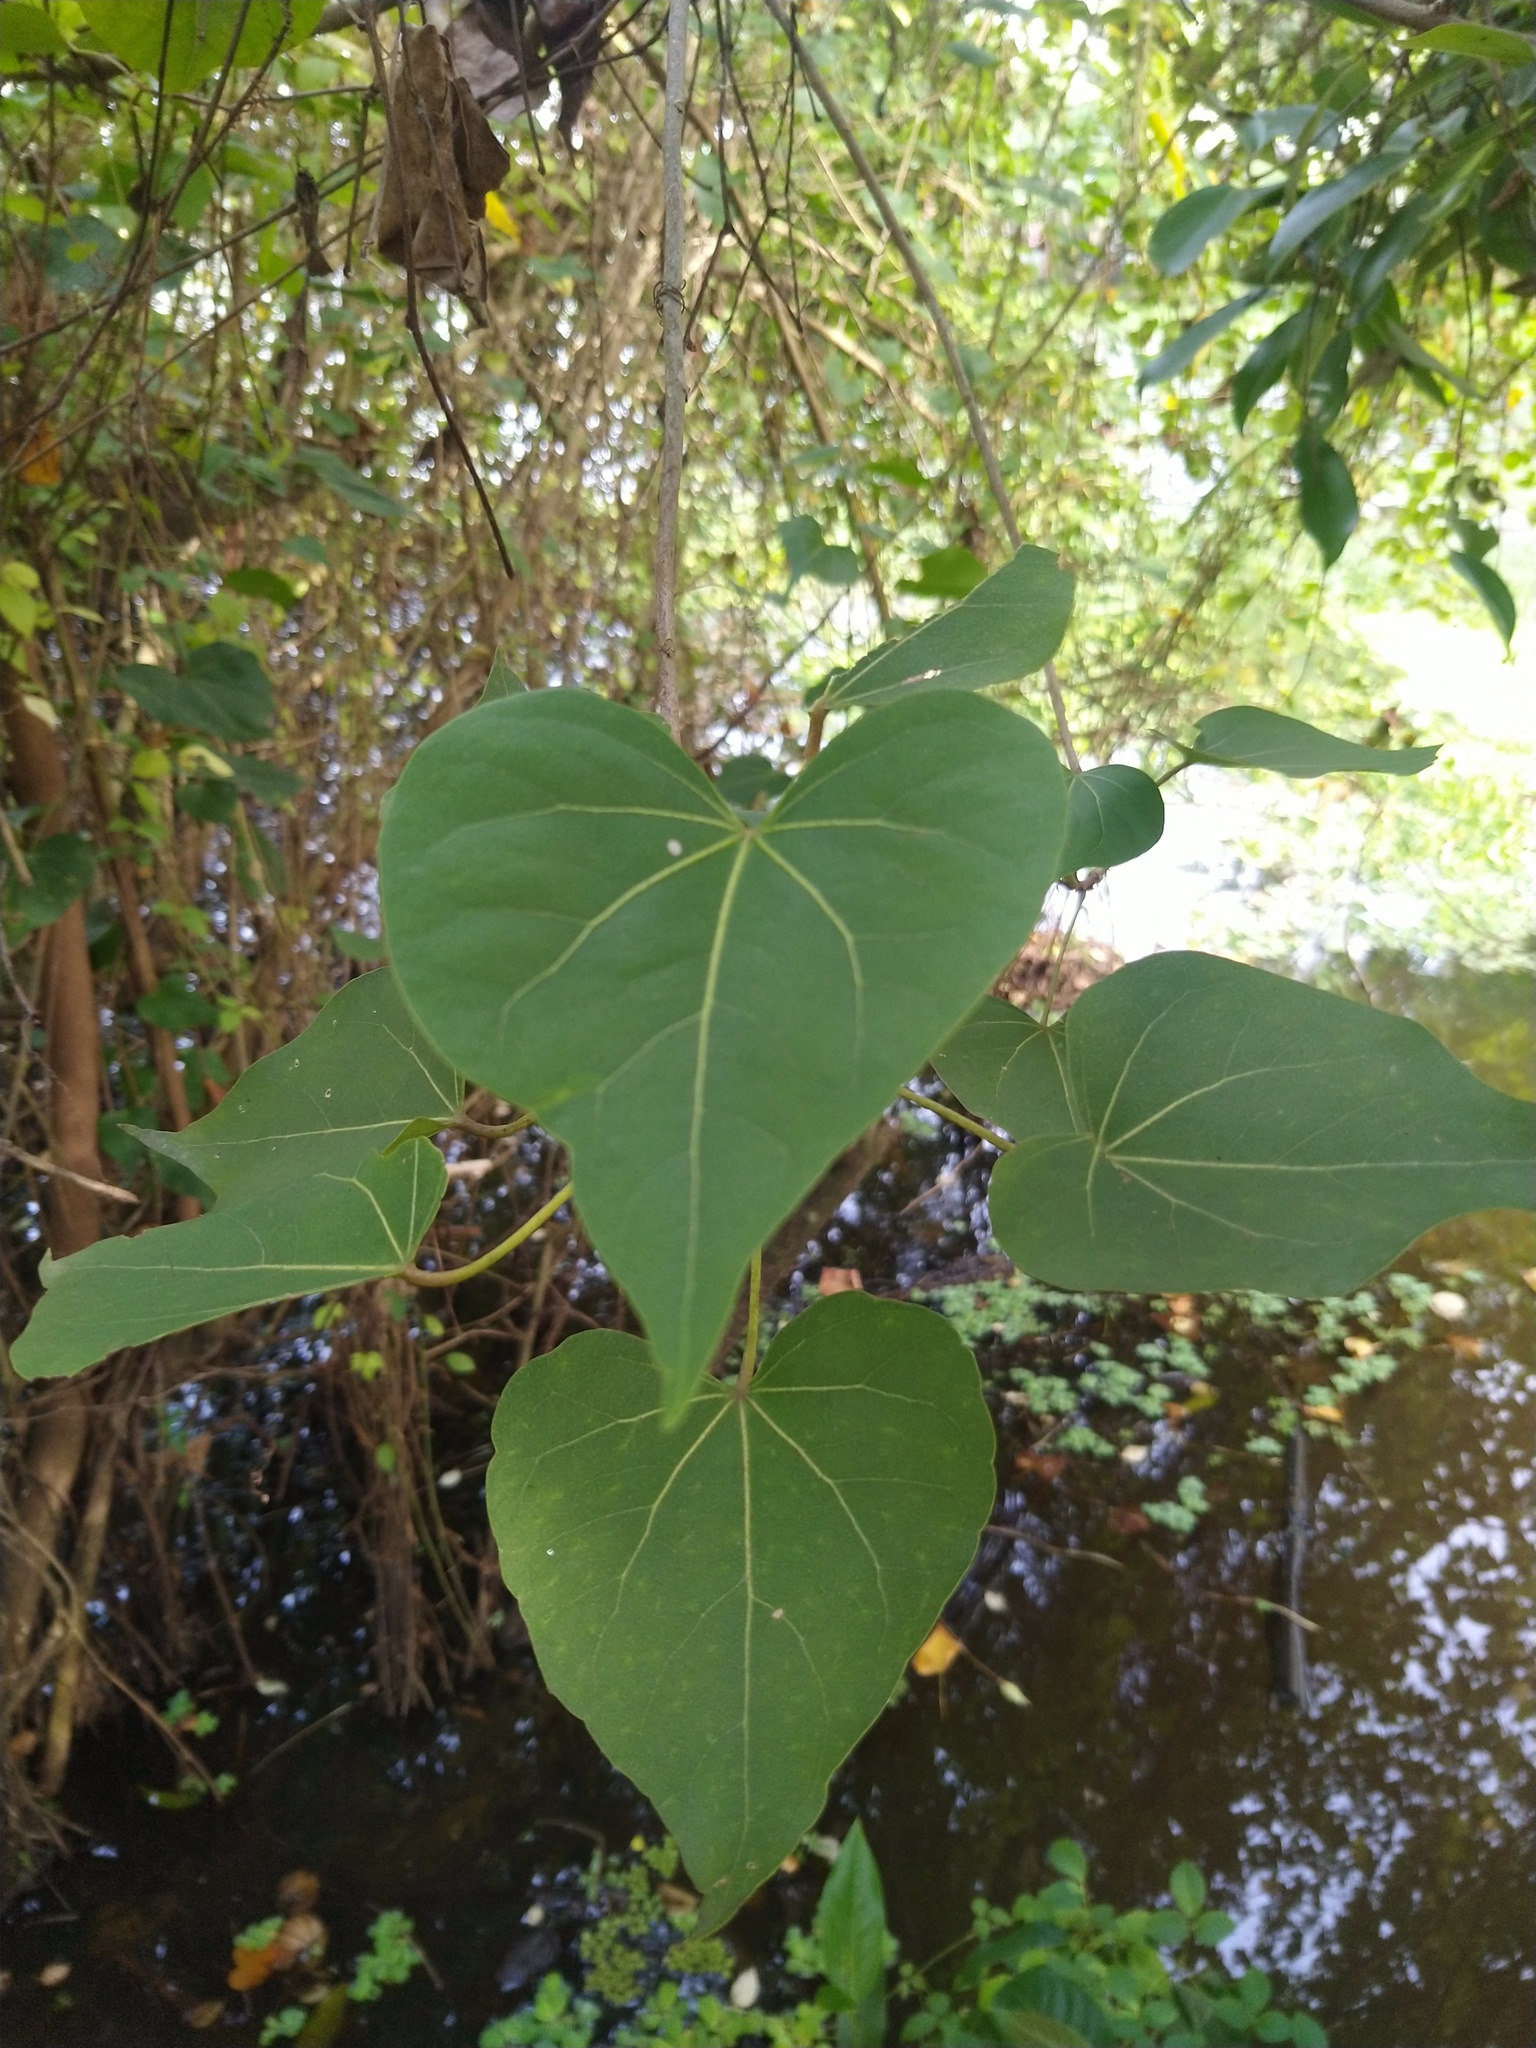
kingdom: Plantae
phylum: Tracheophyta
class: Magnoliopsida
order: Malvales
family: Malvaceae
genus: Thespesia
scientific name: Thespesia populnea
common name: Seaside mahoe
